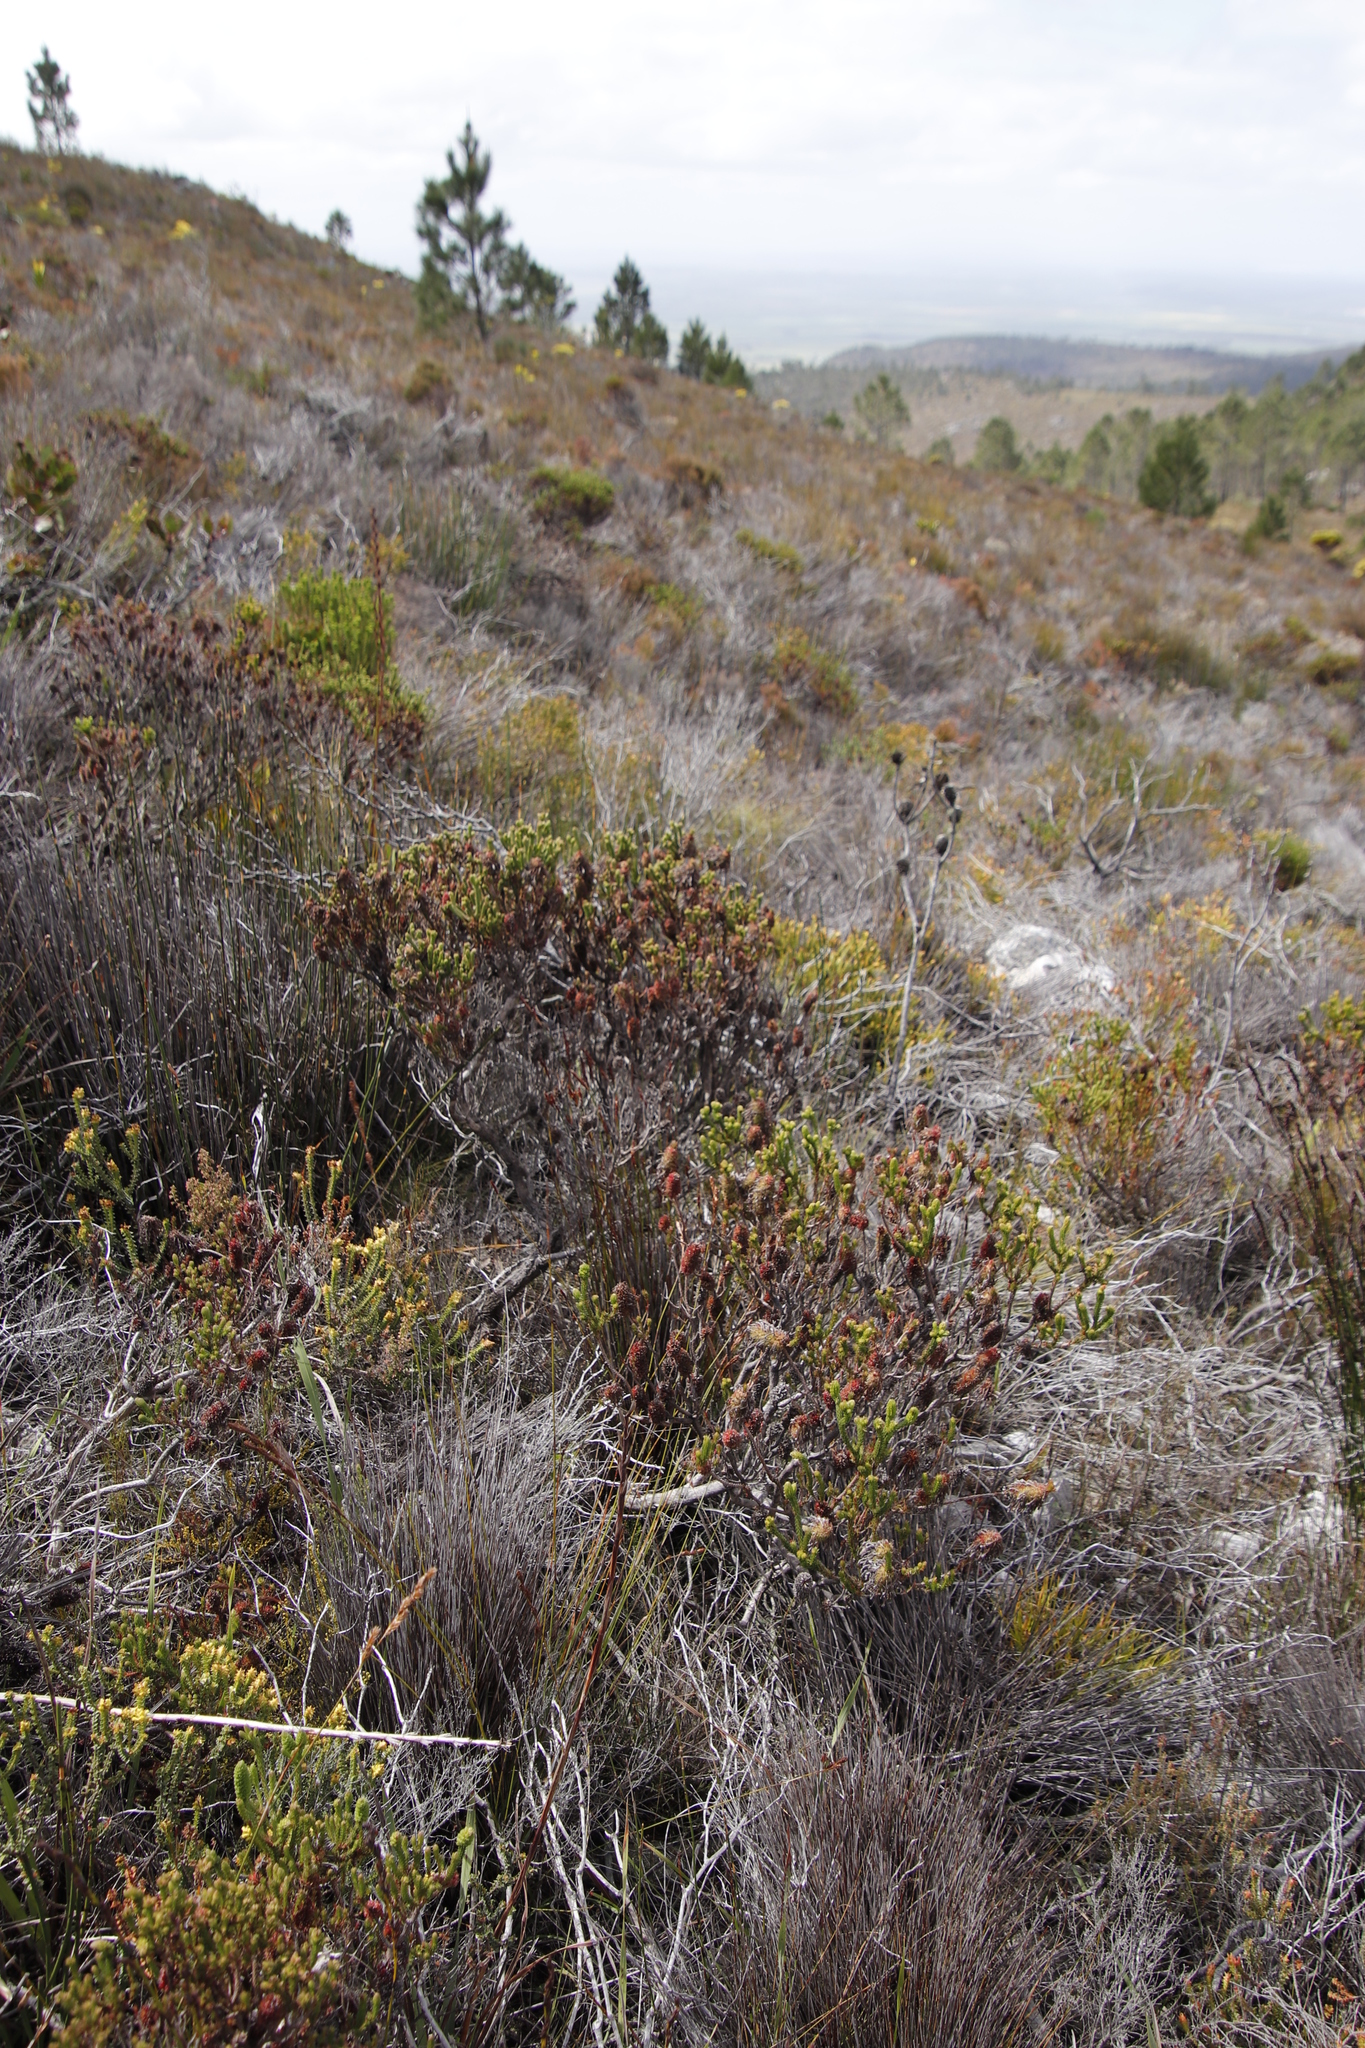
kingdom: Plantae
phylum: Tracheophyta
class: Magnoliopsida
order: Ericales
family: Ericaceae
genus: Erica
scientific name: Erica sessiliflora
